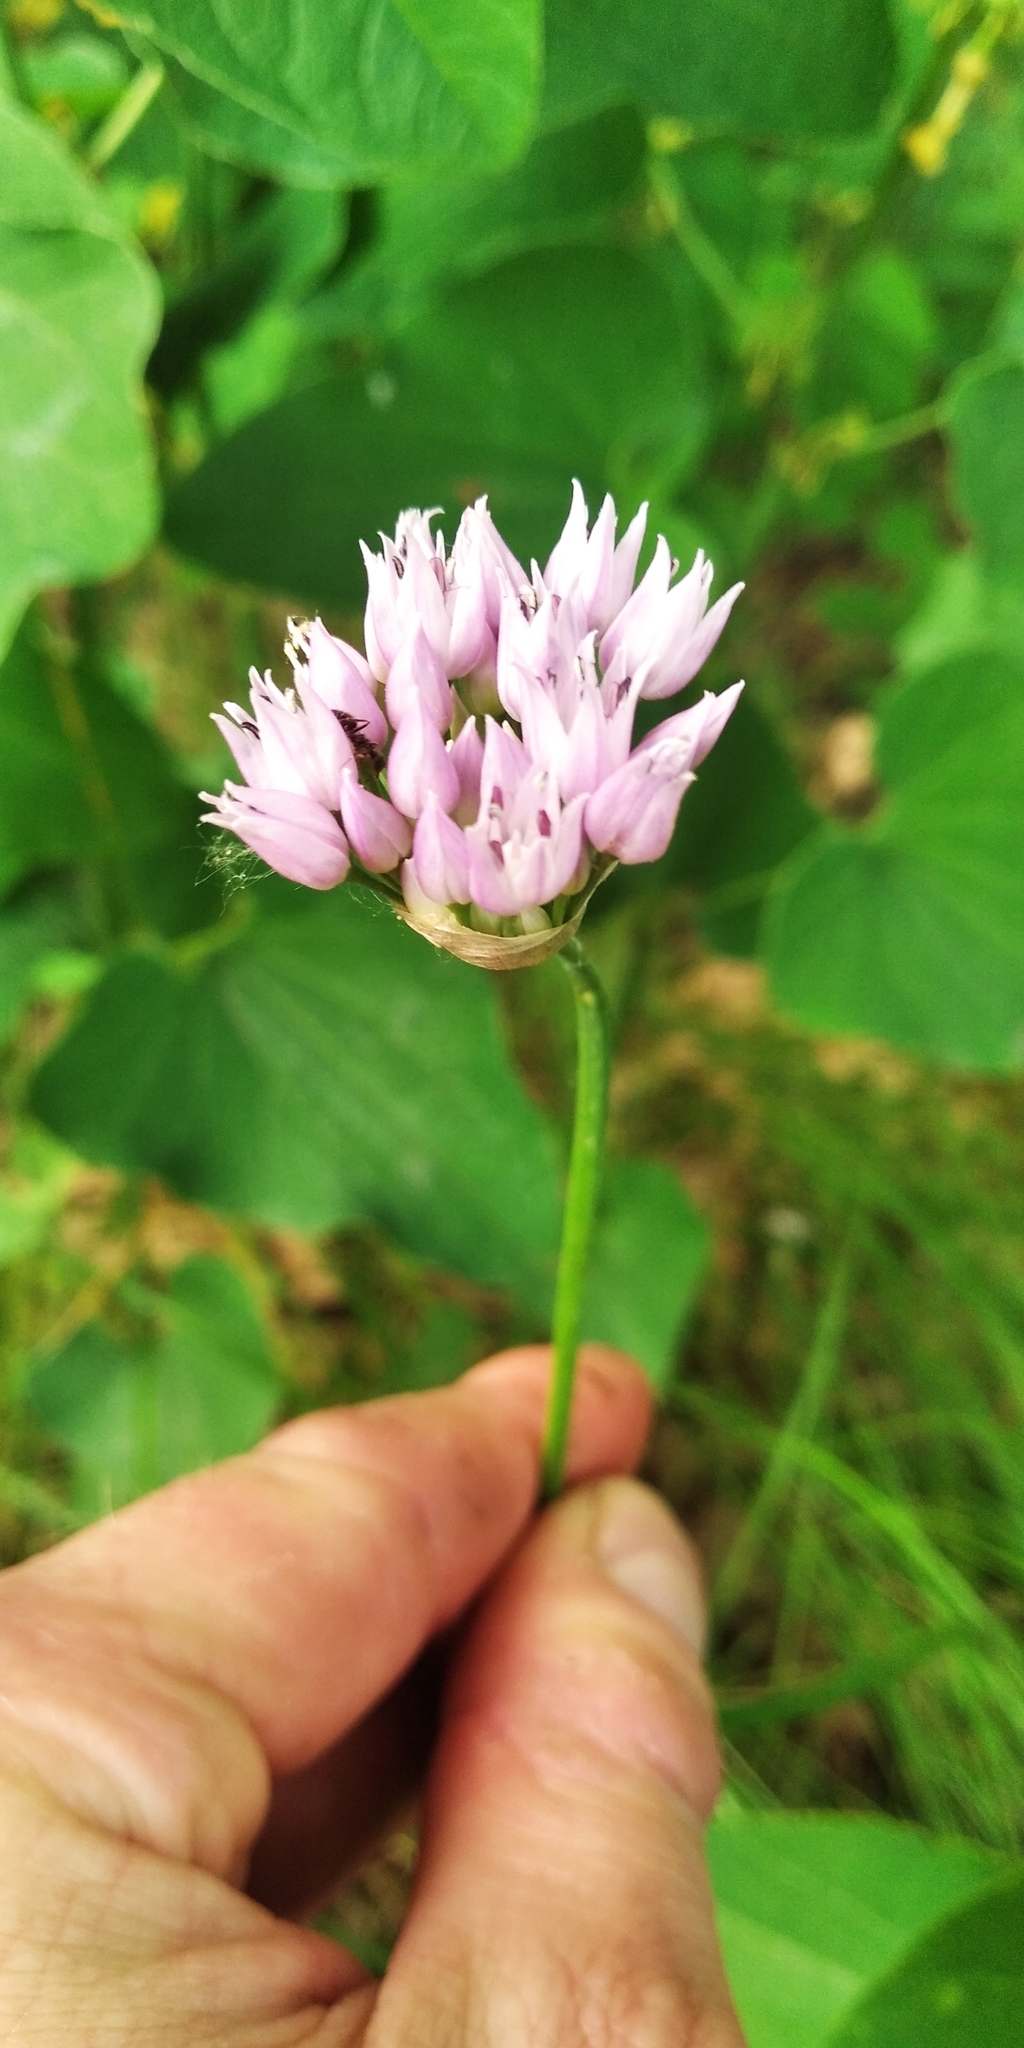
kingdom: Plantae
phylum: Tracheophyta
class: Liliopsida
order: Asparagales
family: Amaryllidaceae
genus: Allium
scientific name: Allium angulosum
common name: Mouse garlic
